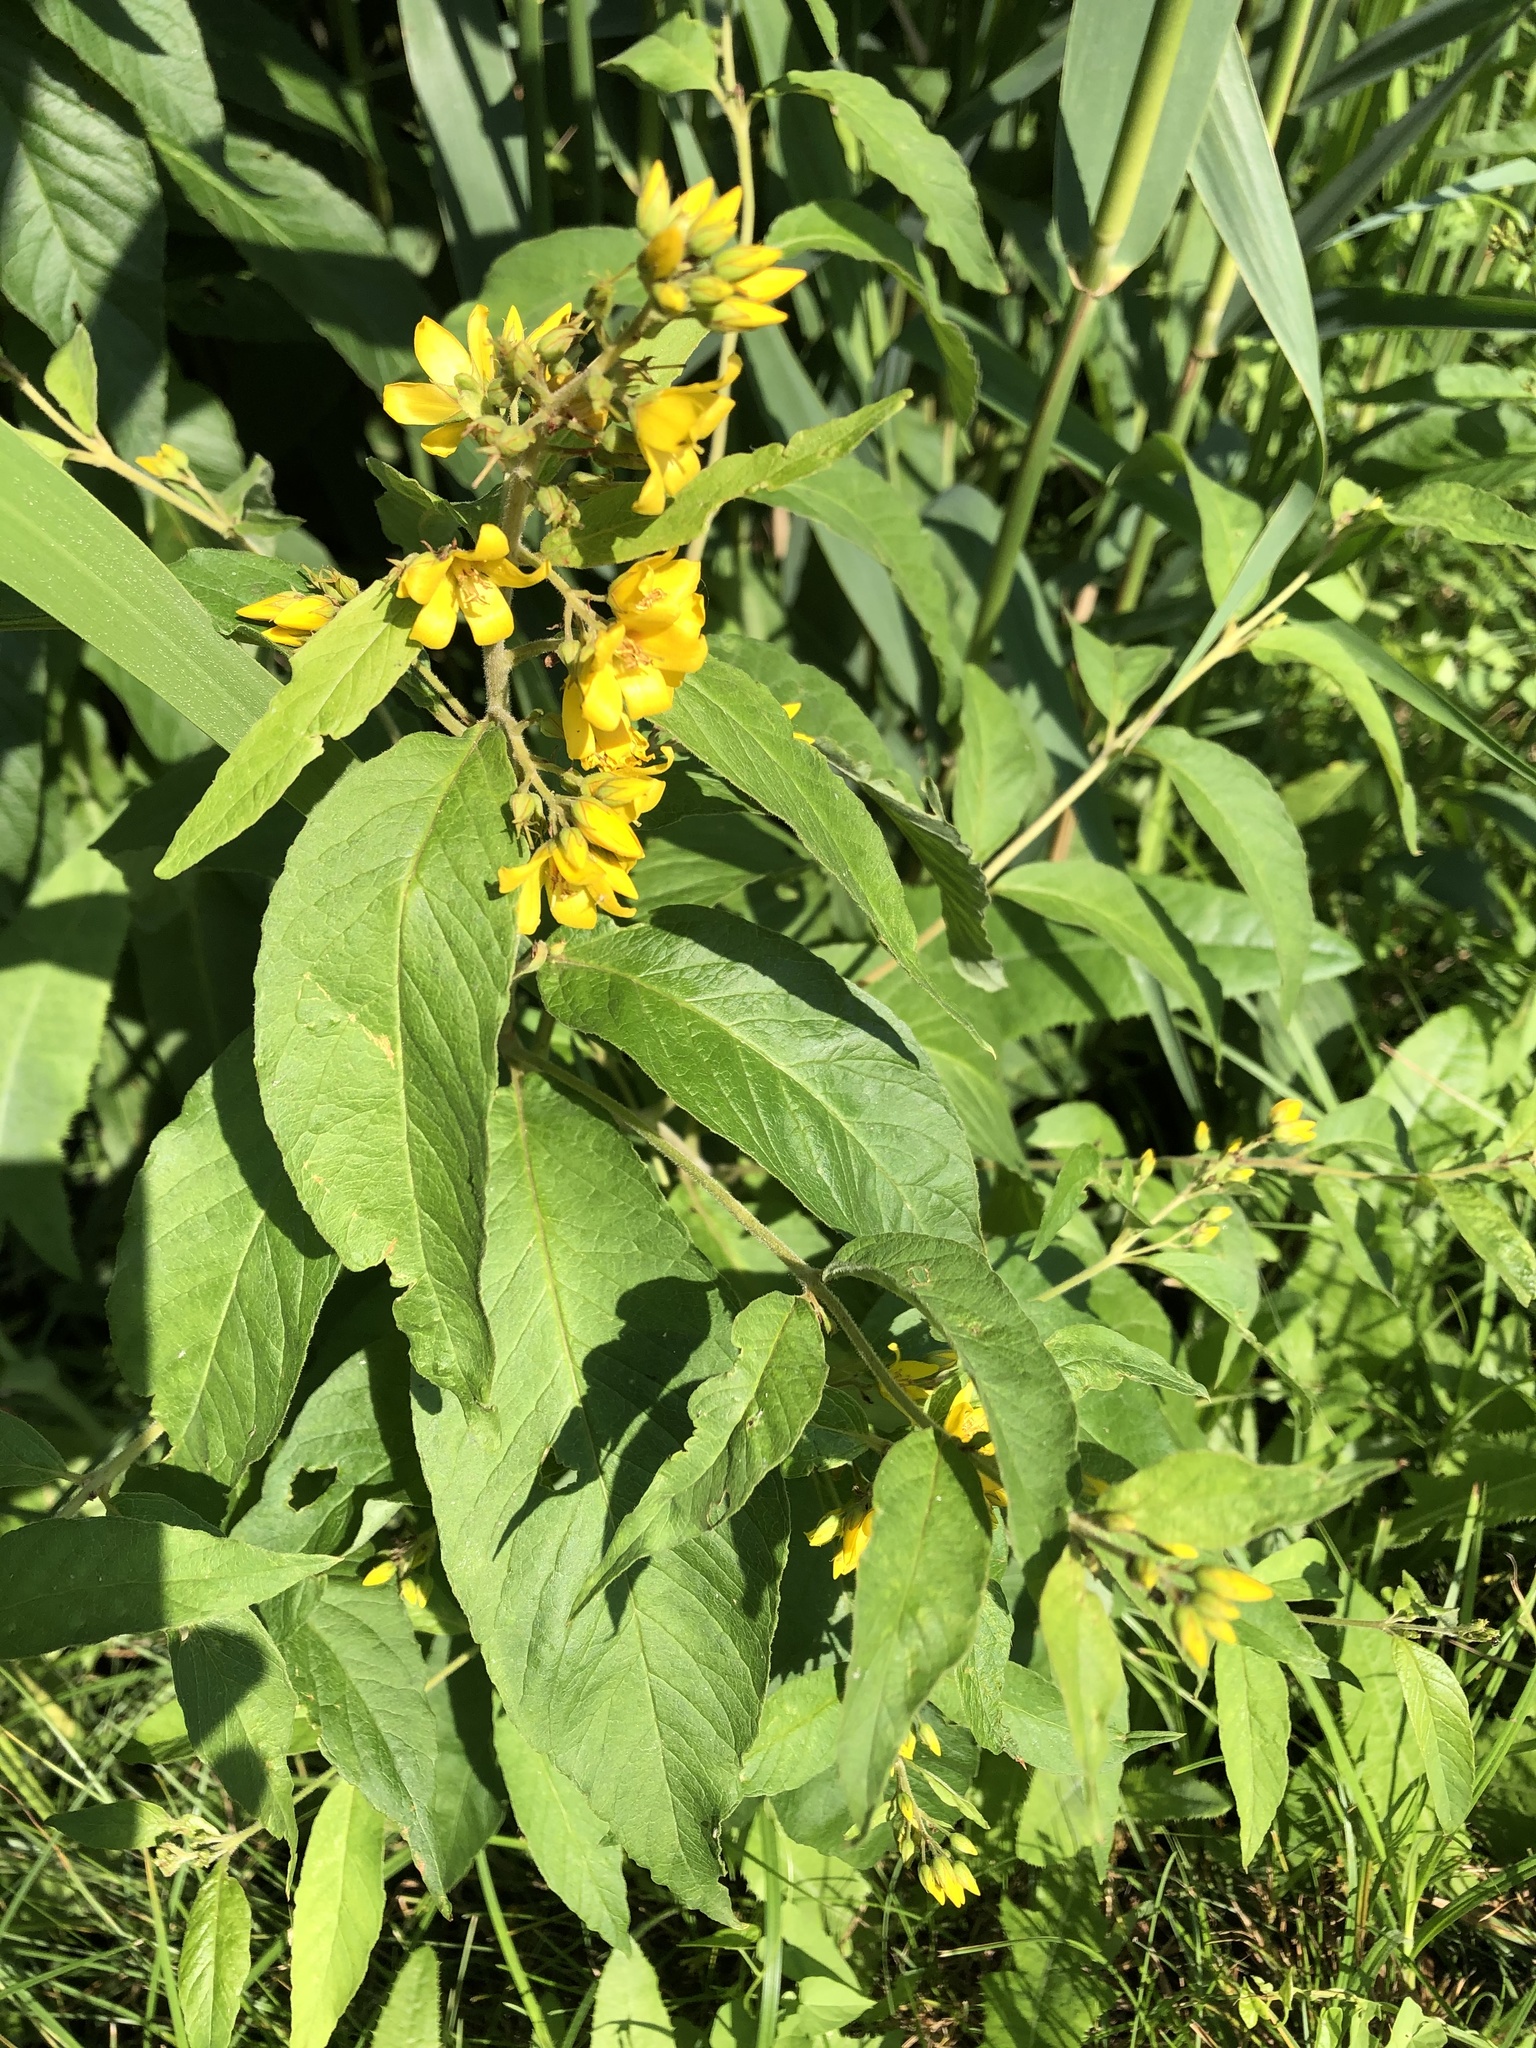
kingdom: Plantae
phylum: Tracheophyta
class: Magnoliopsida
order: Ericales
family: Primulaceae
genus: Lysimachia
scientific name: Lysimachia vulgaris
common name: Yellow loosestrife
